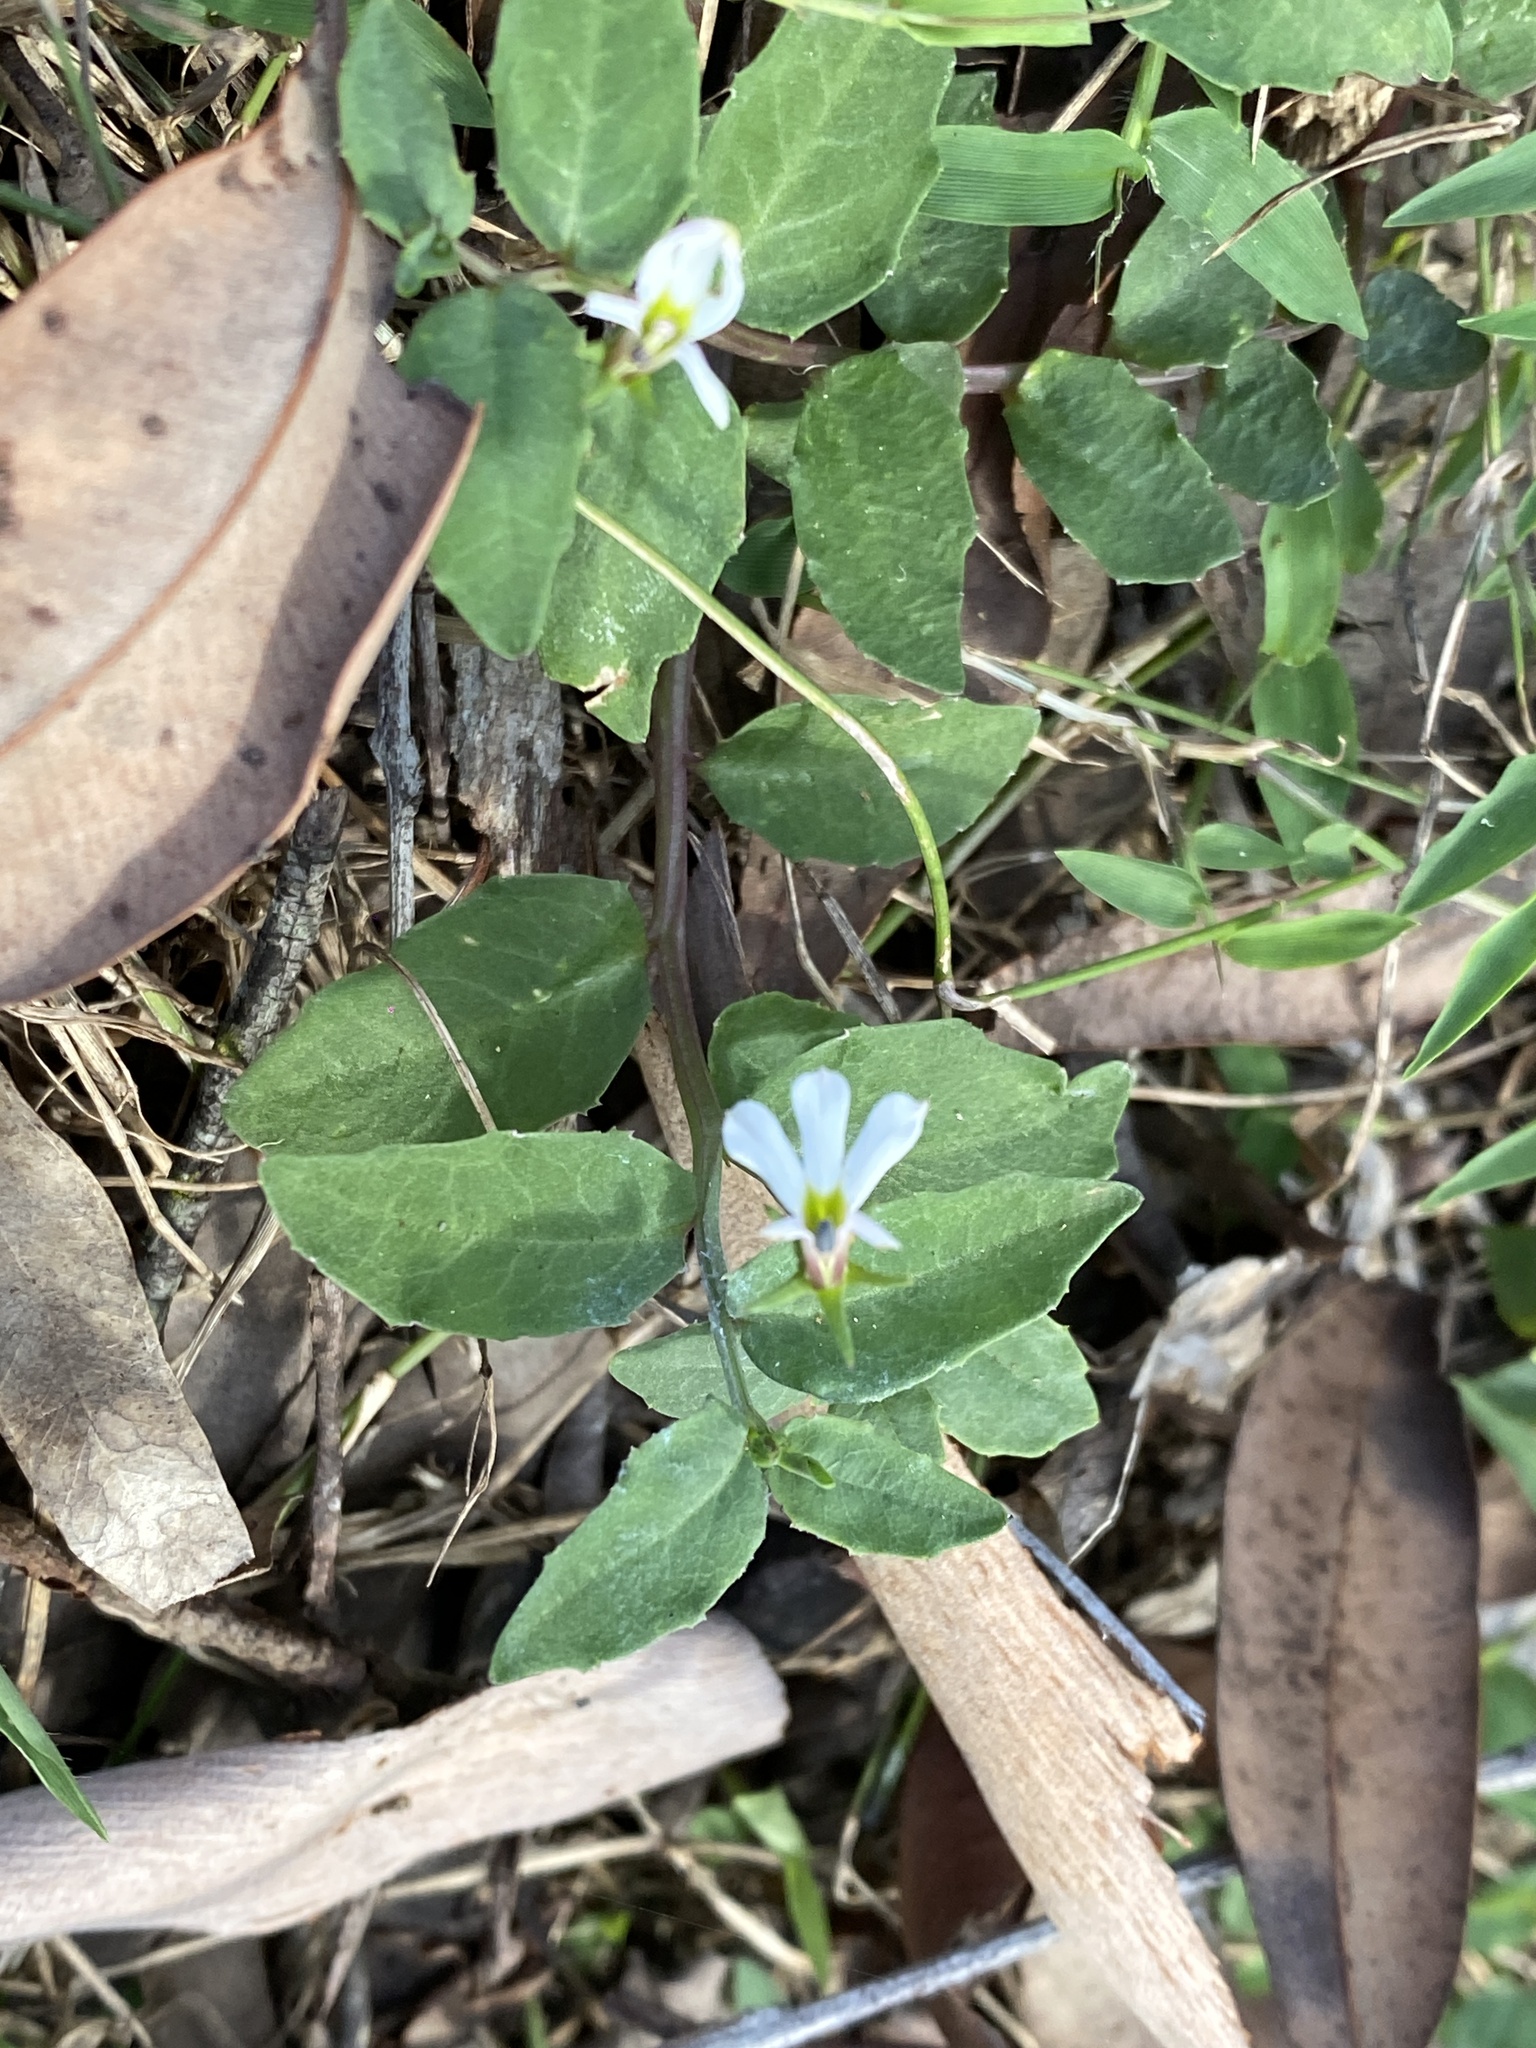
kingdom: Plantae
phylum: Tracheophyta
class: Magnoliopsida
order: Asterales
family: Campanulaceae
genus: Lobelia
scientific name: Lobelia purpurascens
